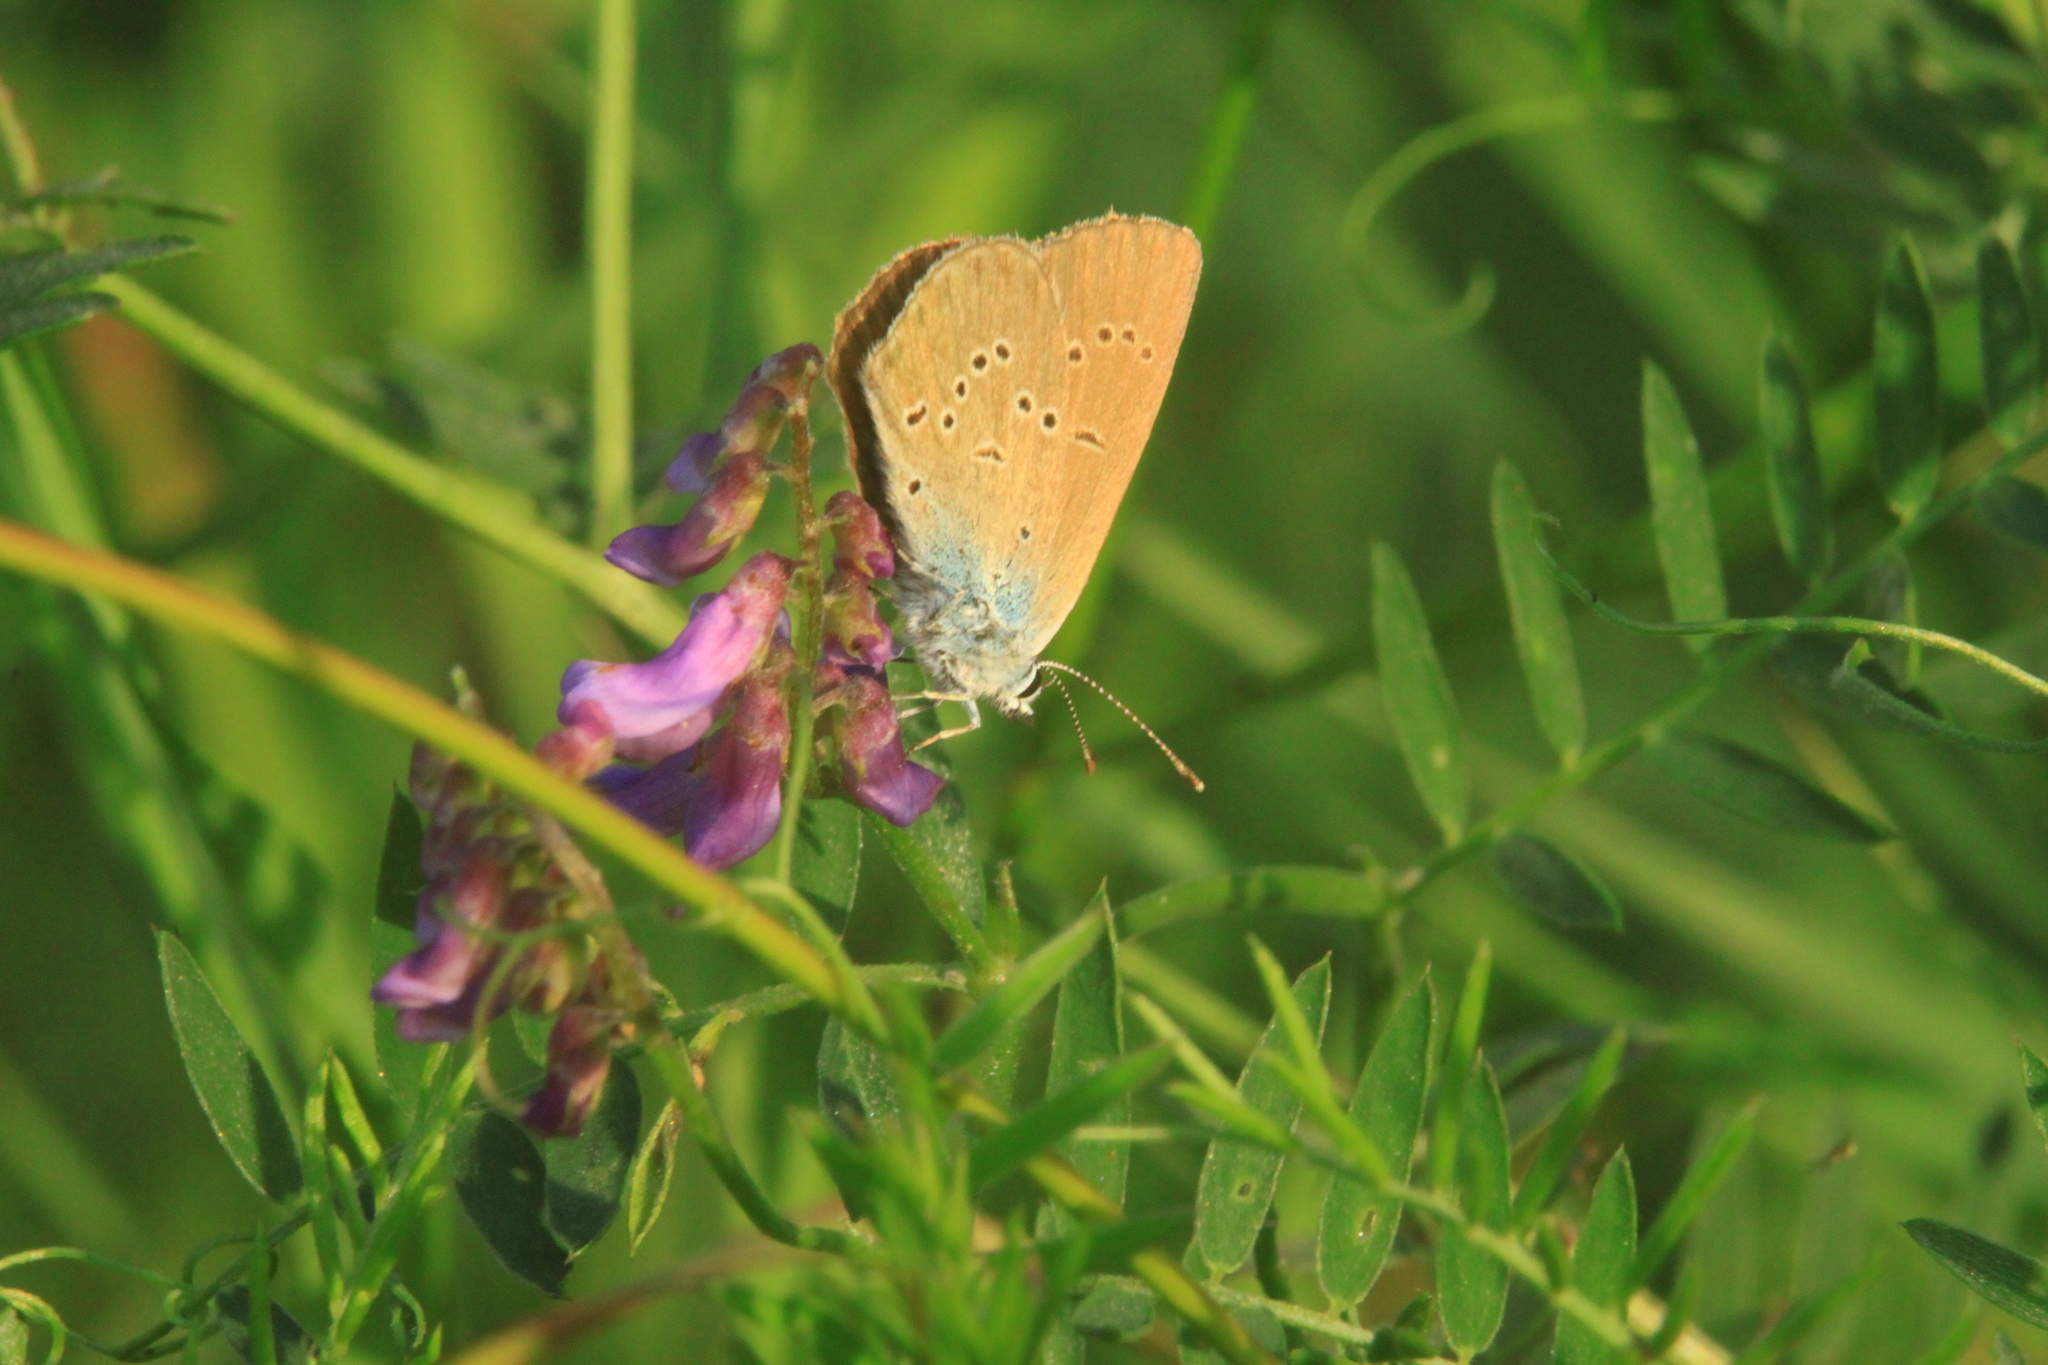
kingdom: Animalia
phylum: Arthropoda
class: Insecta
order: Lepidoptera
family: Lycaenidae
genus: Cyaniris
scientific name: Cyaniris semiargus
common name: Mazarine blue
